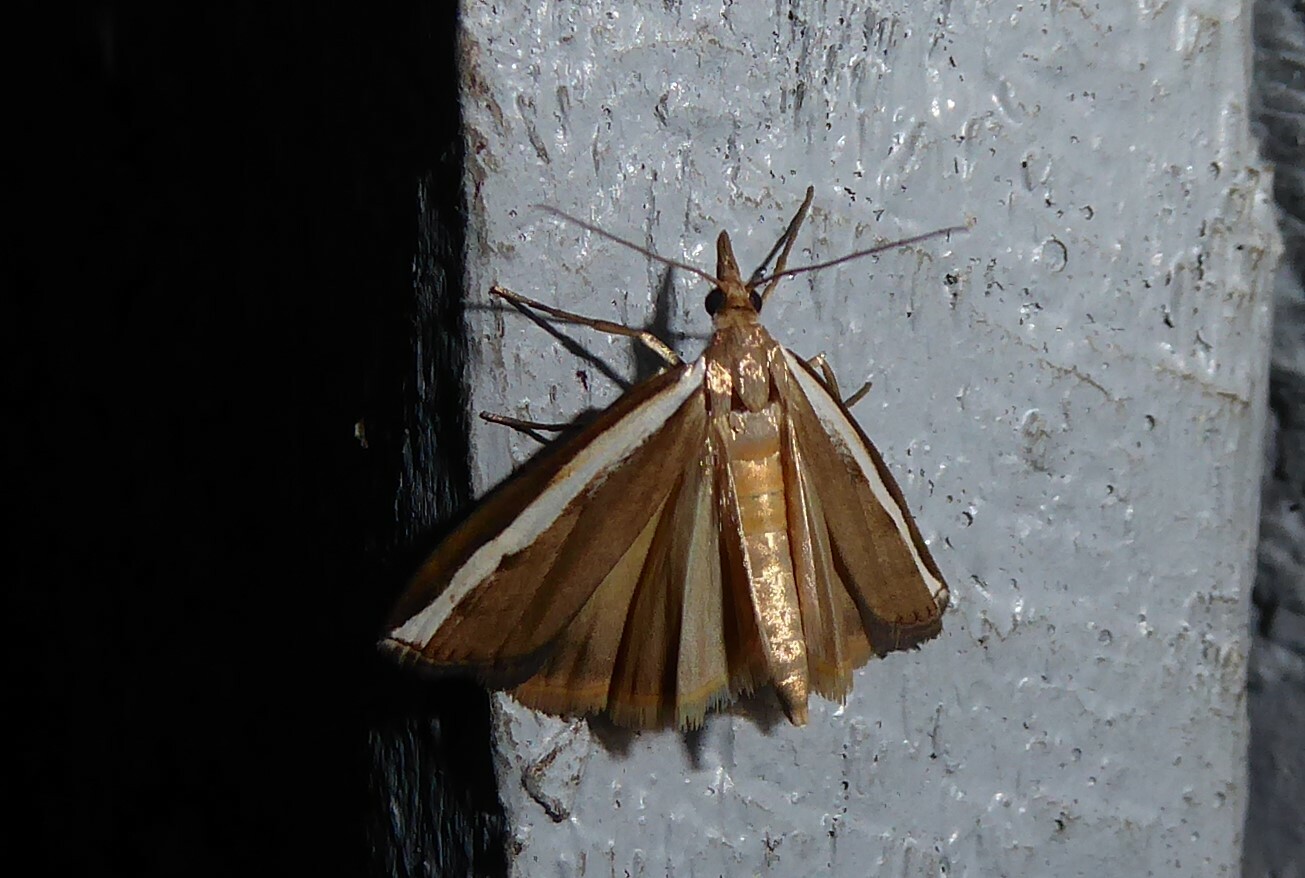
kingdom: Animalia
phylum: Arthropoda
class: Insecta
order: Lepidoptera
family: Crambidae
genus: Orocrambus
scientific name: Orocrambus flexuosellus
